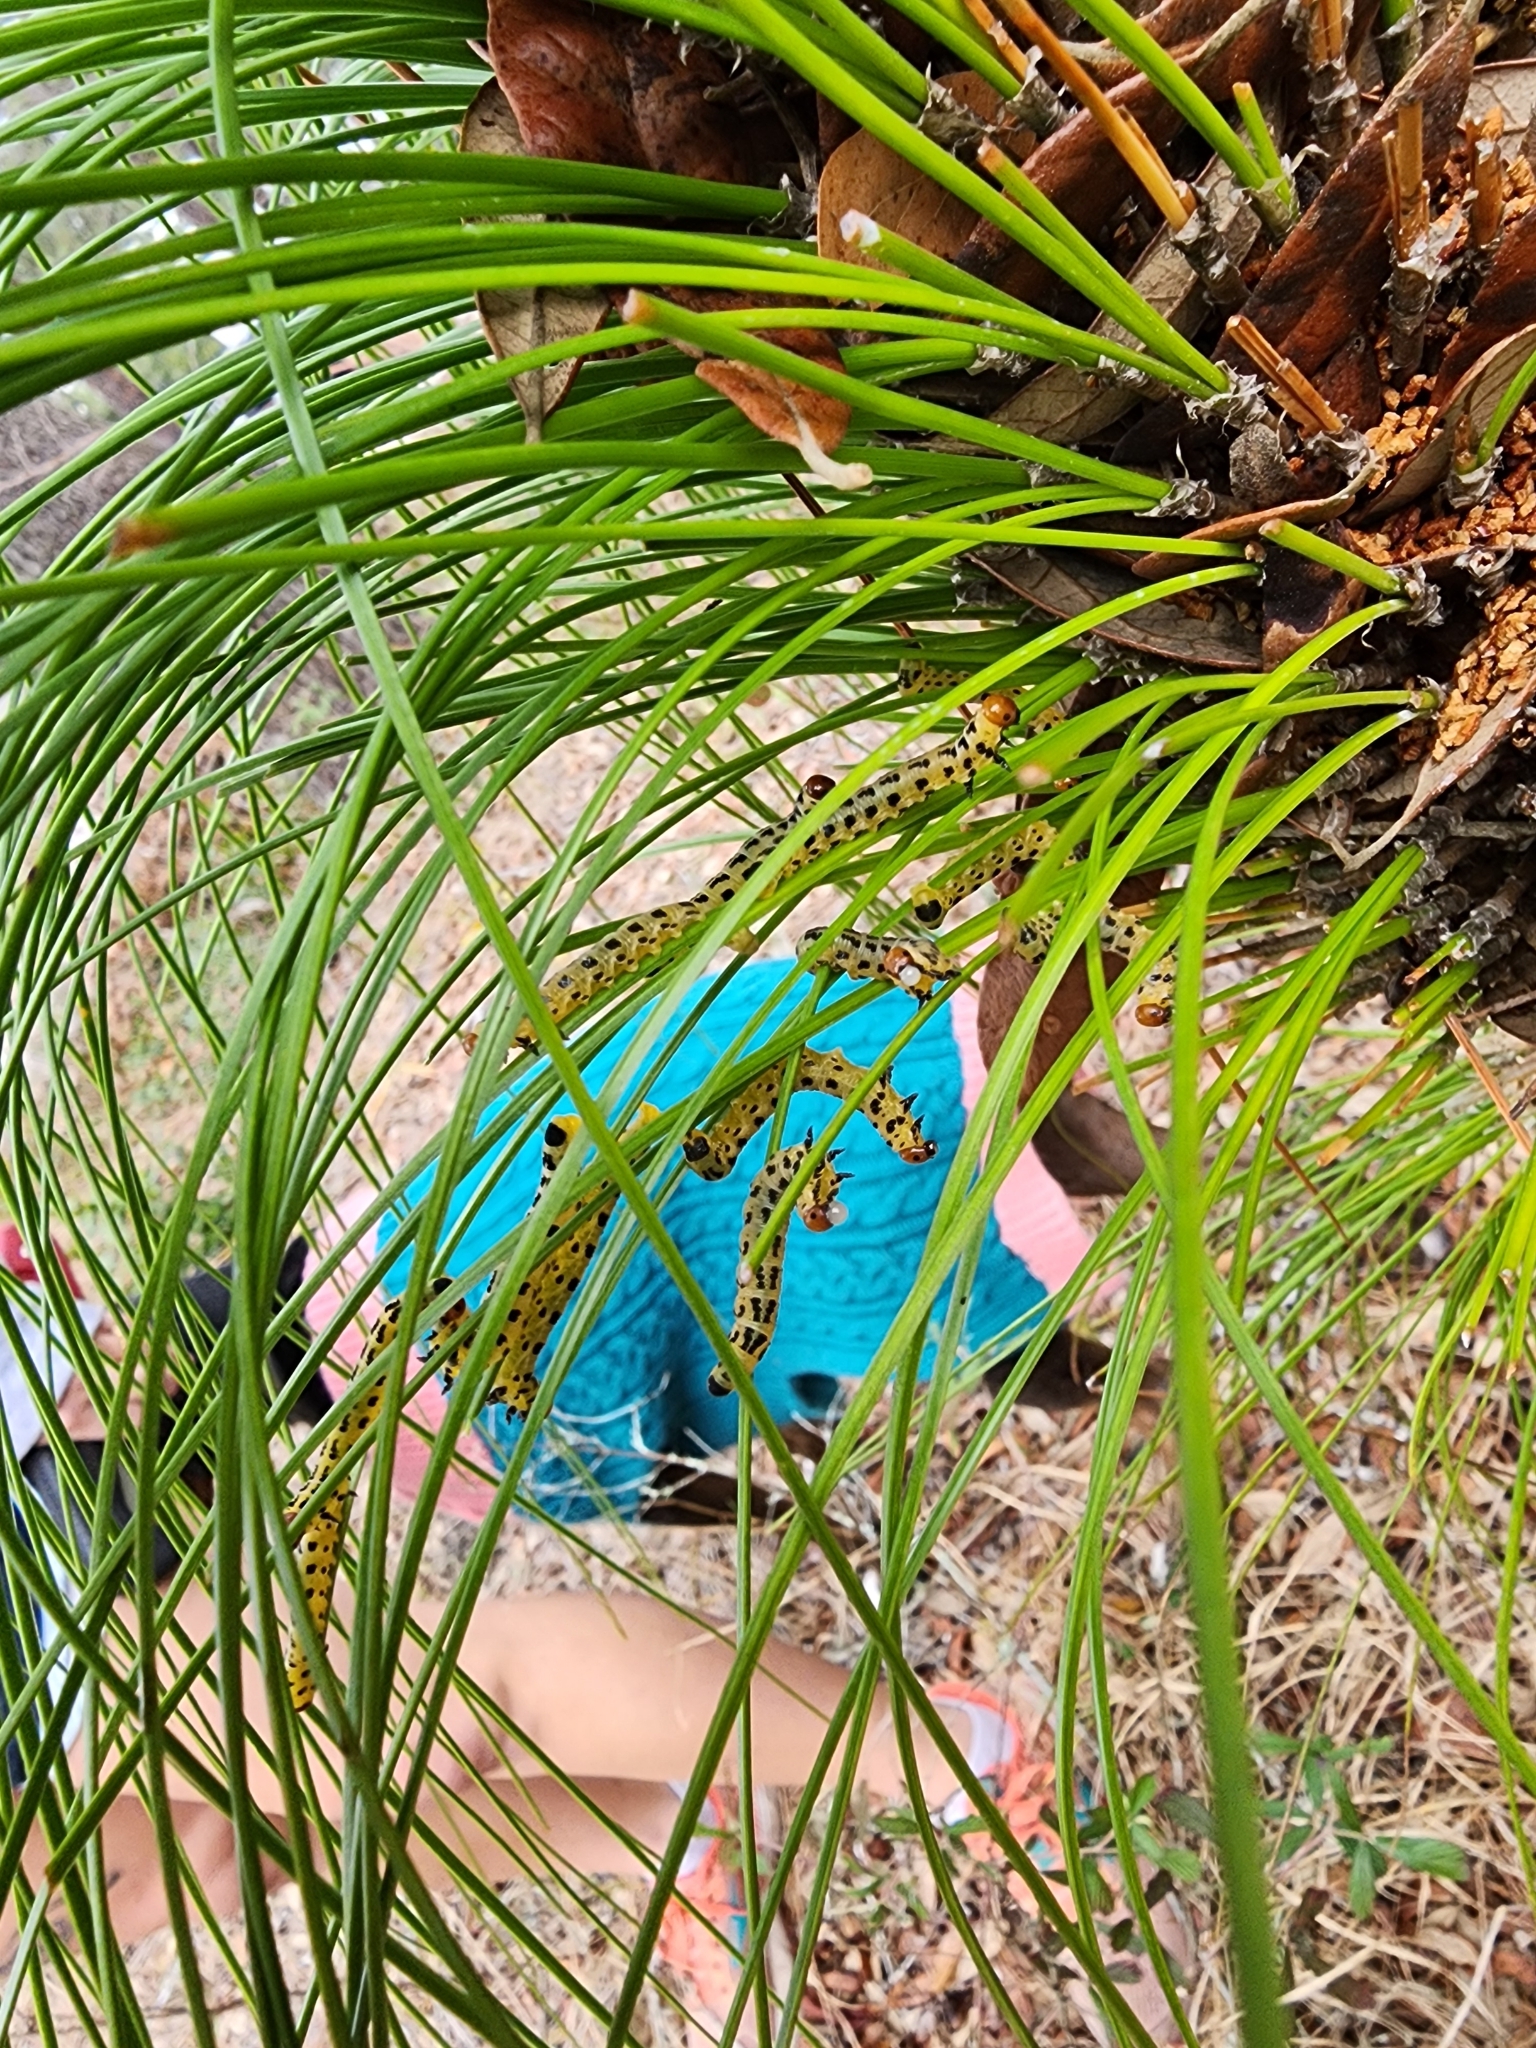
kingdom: Animalia
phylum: Arthropoda
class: Insecta
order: Hymenoptera
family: Diprionidae
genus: Neodiprion
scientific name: Neodiprion lecontei
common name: Redheaded pine sawfly
